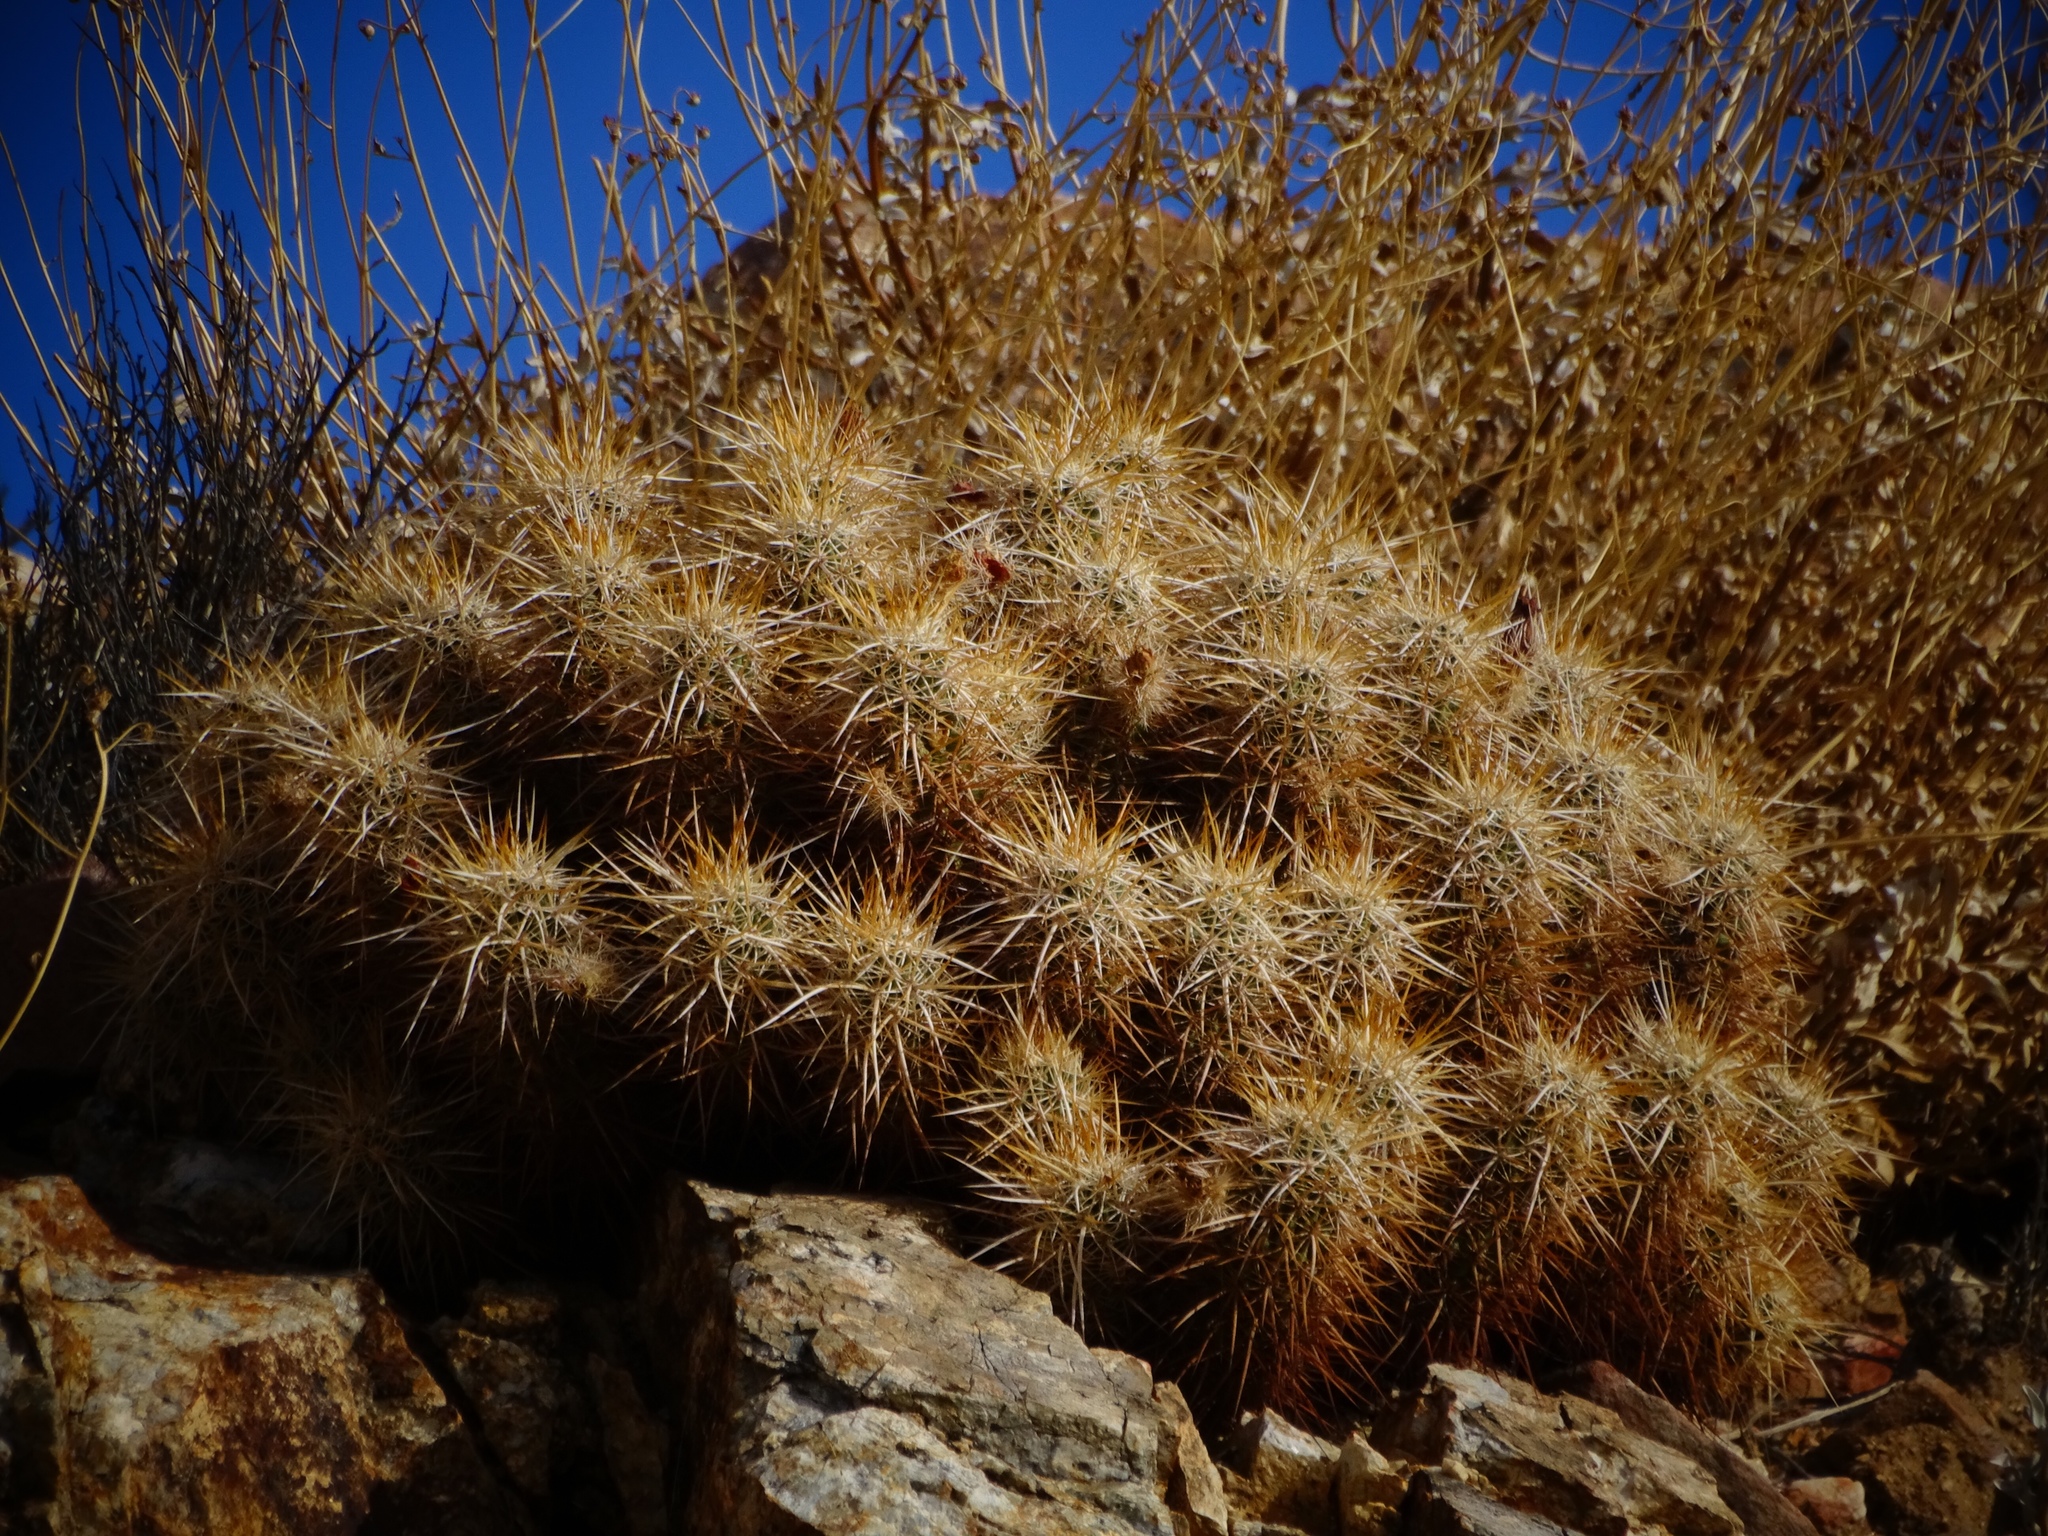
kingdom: Plantae
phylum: Tracheophyta
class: Magnoliopsida
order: Caryophyllales
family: Cactaceae
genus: Echinocereus
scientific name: Echinocereus engelmannii
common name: Engelmann's hedgehog cactus
